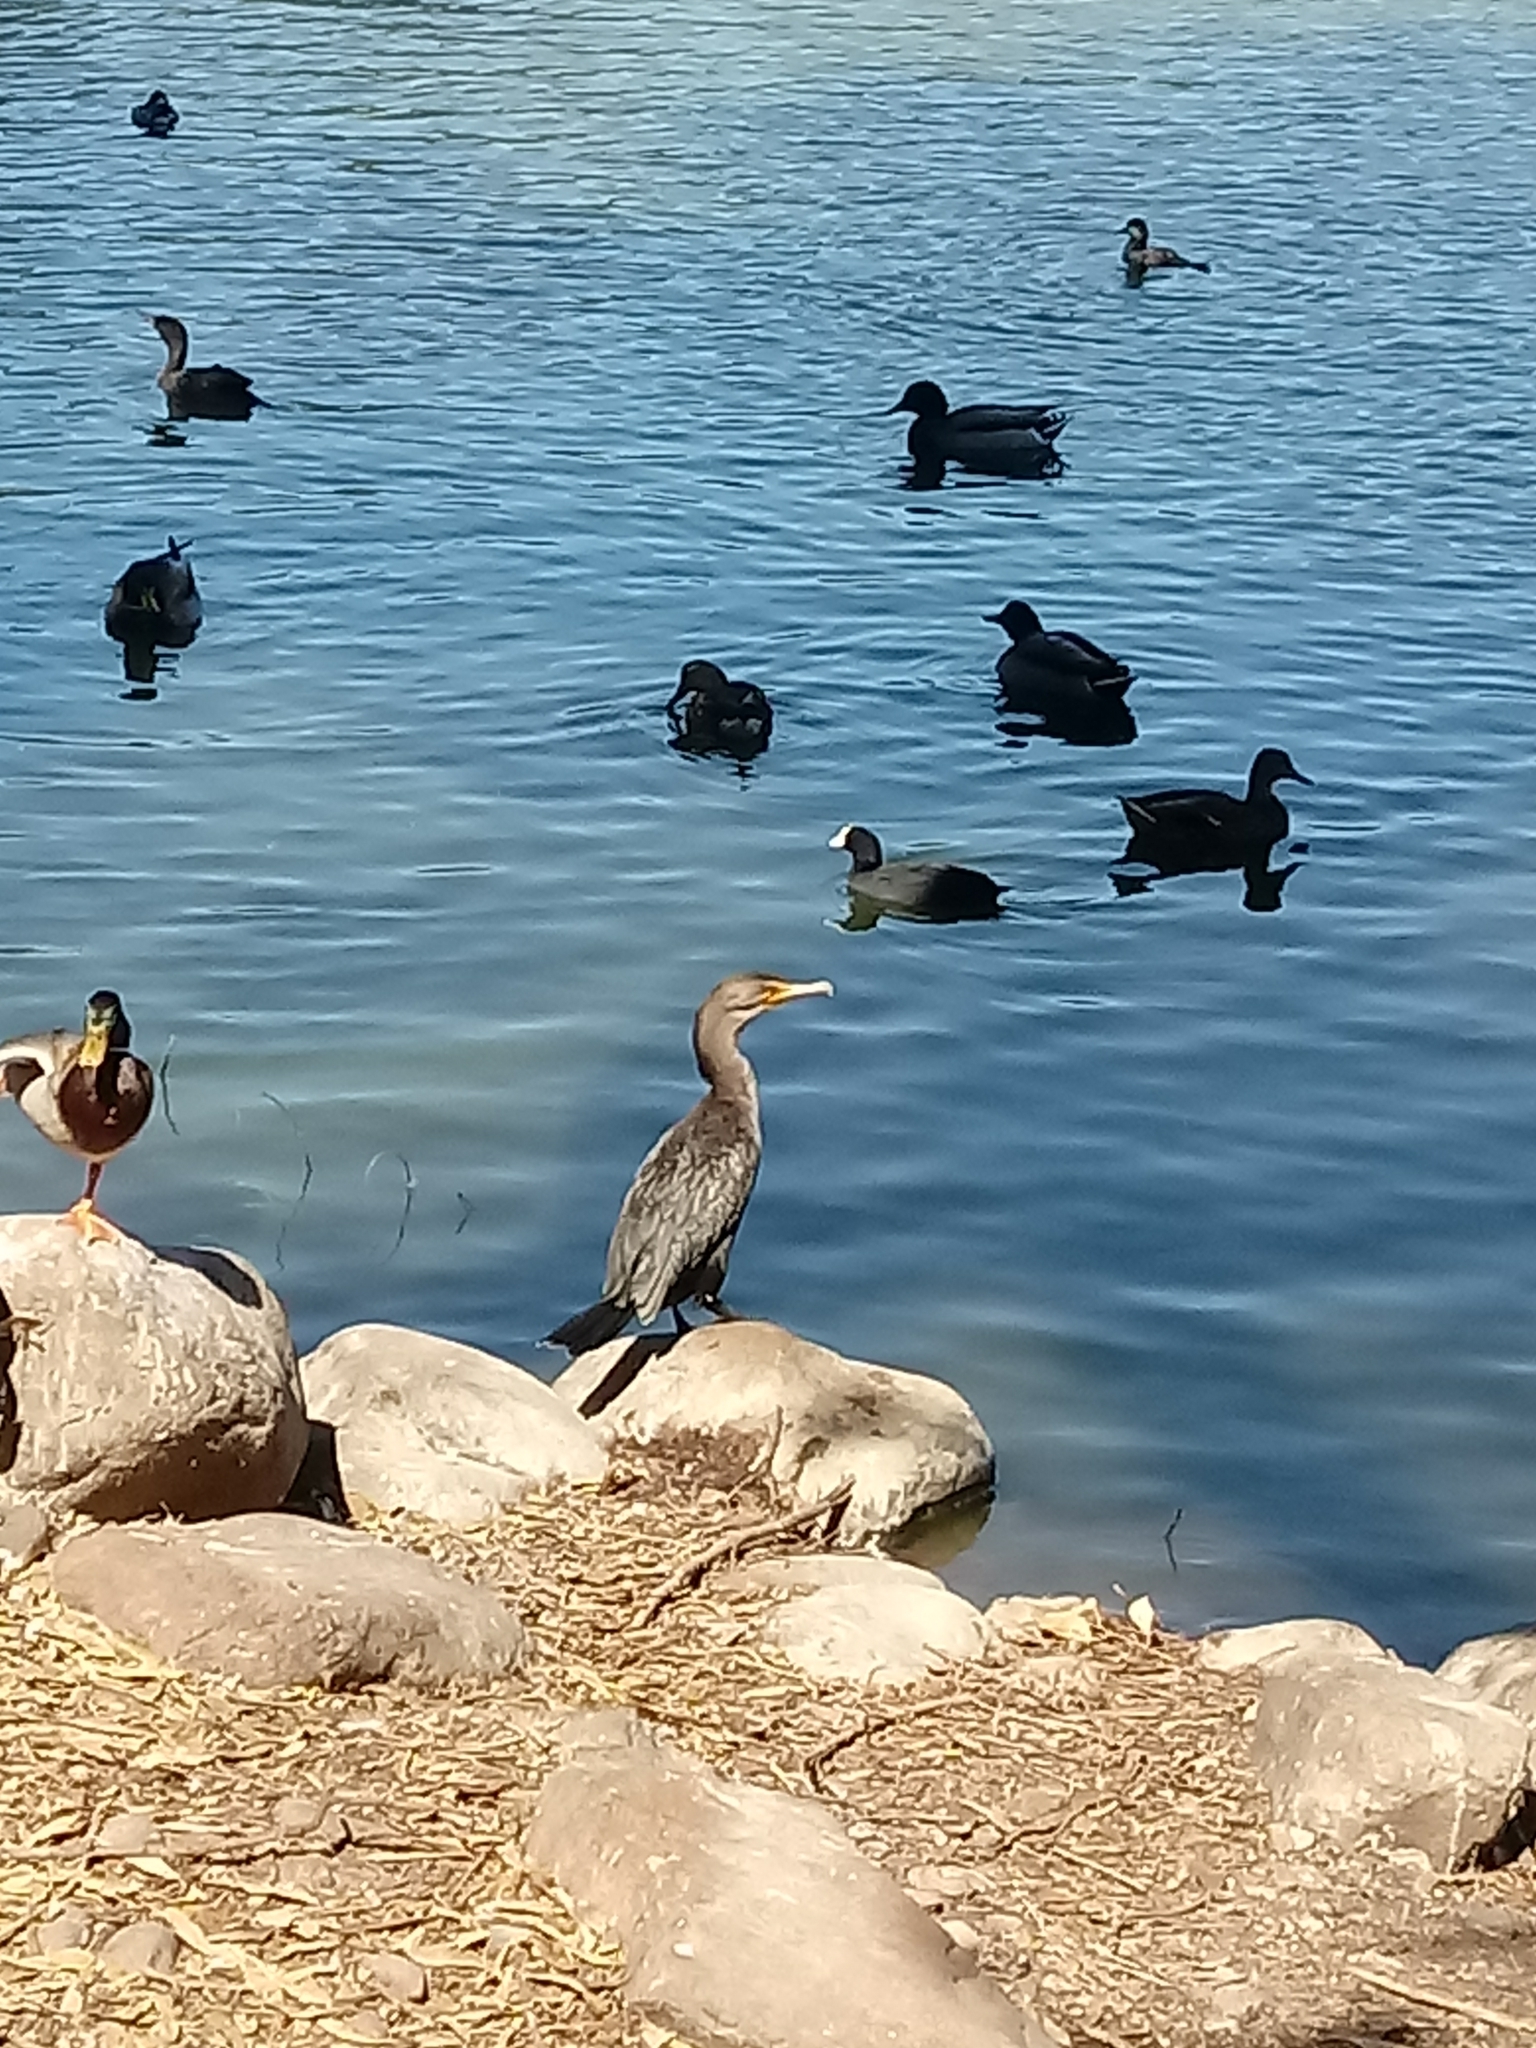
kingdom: Animalia
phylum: Chordata
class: Aves
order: Suliformes
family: Phalacrocoracidae
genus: Phalacrocorax
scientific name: Phalacrocorax auritus
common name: Double-crested cormorant
